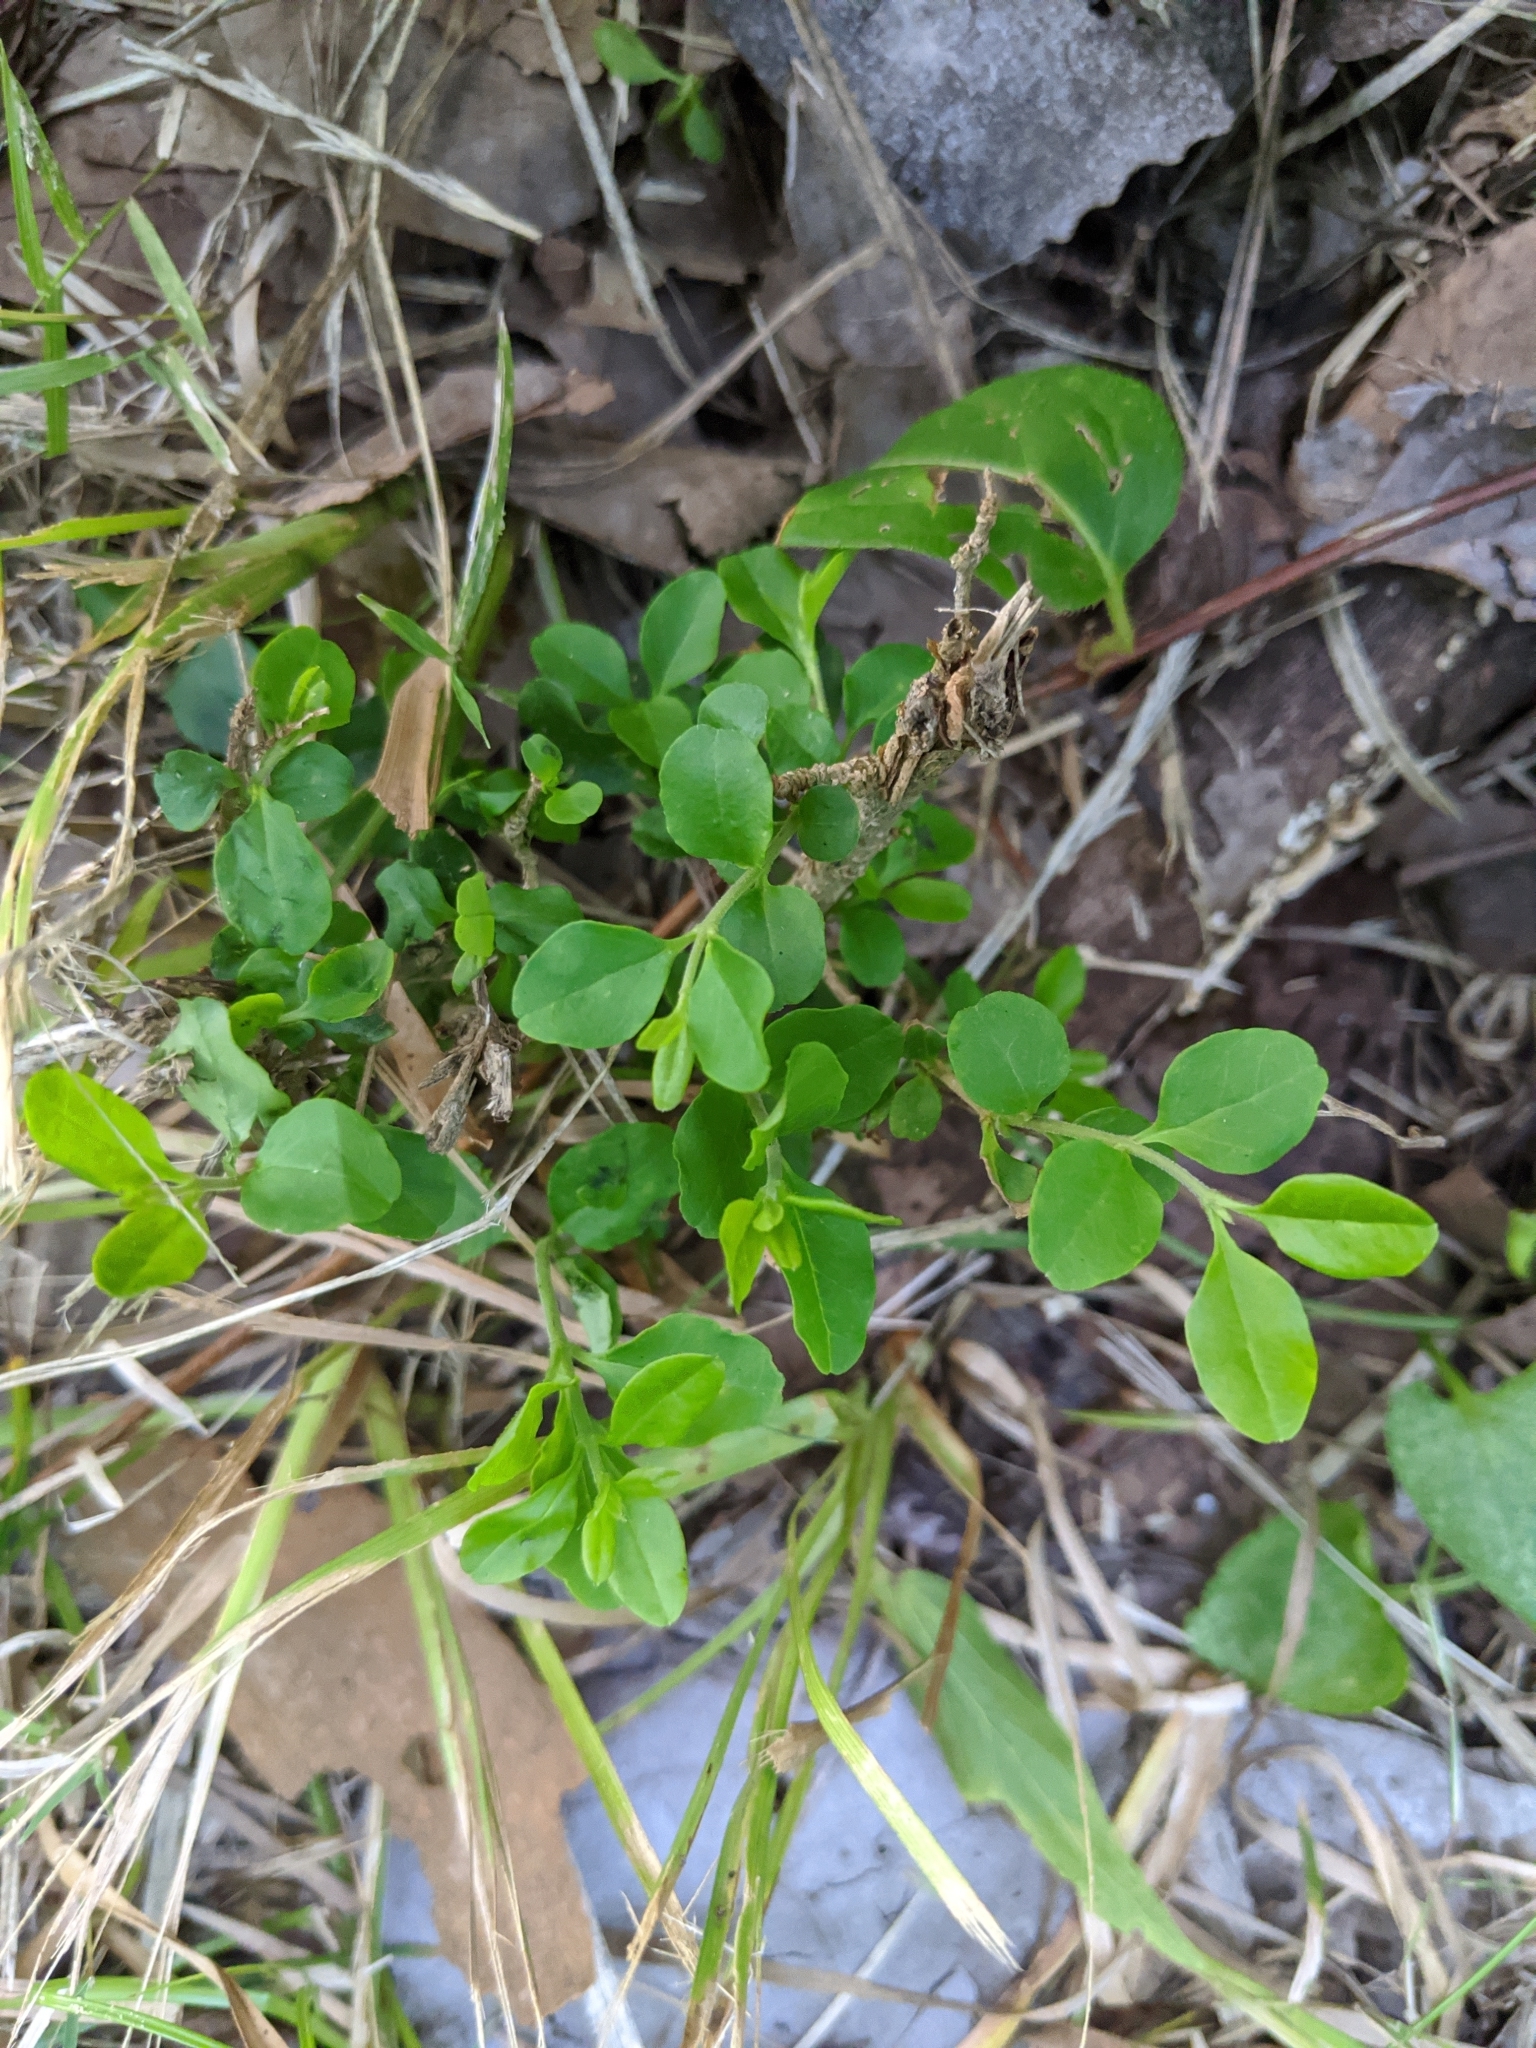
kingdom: Plantae
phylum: Tracheophyta
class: Magnoliopsida
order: Lamiales
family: Oleaceae
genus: Ligustrum
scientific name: Ligustrum sinense
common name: Chinese privet
